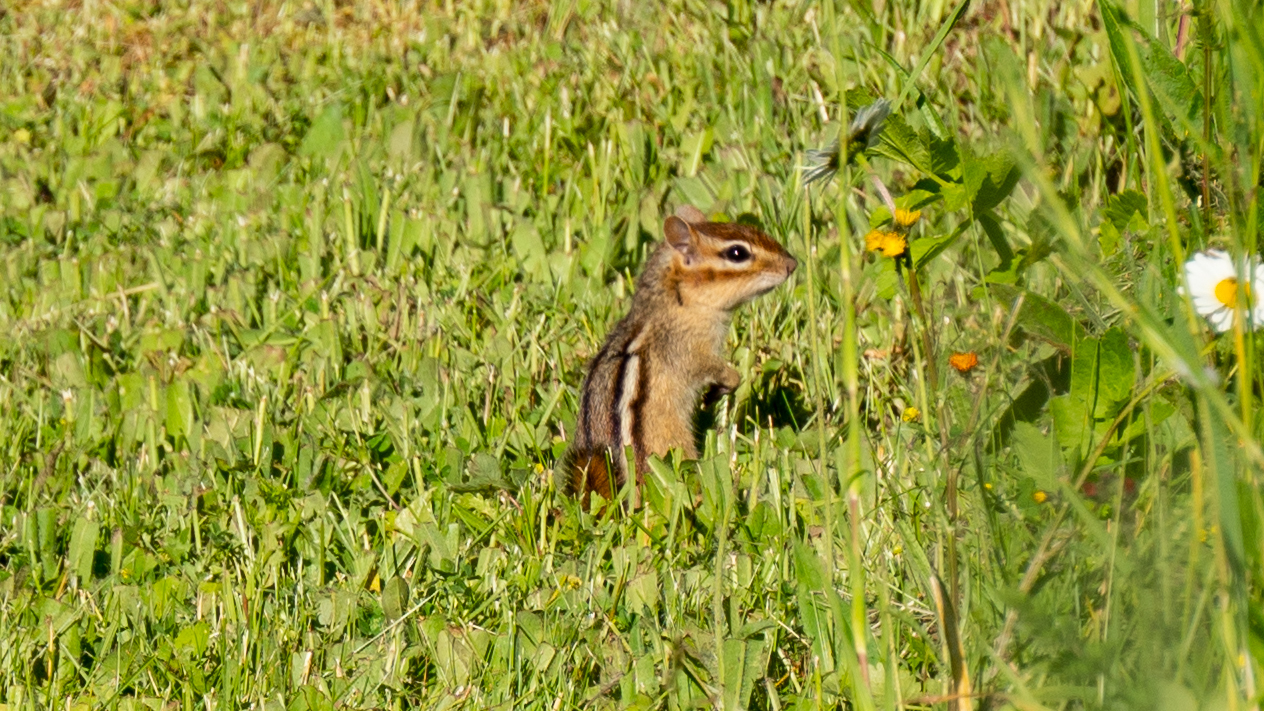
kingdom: Animalia
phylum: Chordata
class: Mammalia
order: Rodentia
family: Sciuridae
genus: Tamias
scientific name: Tamias striatus
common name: Eastern chipmunk
